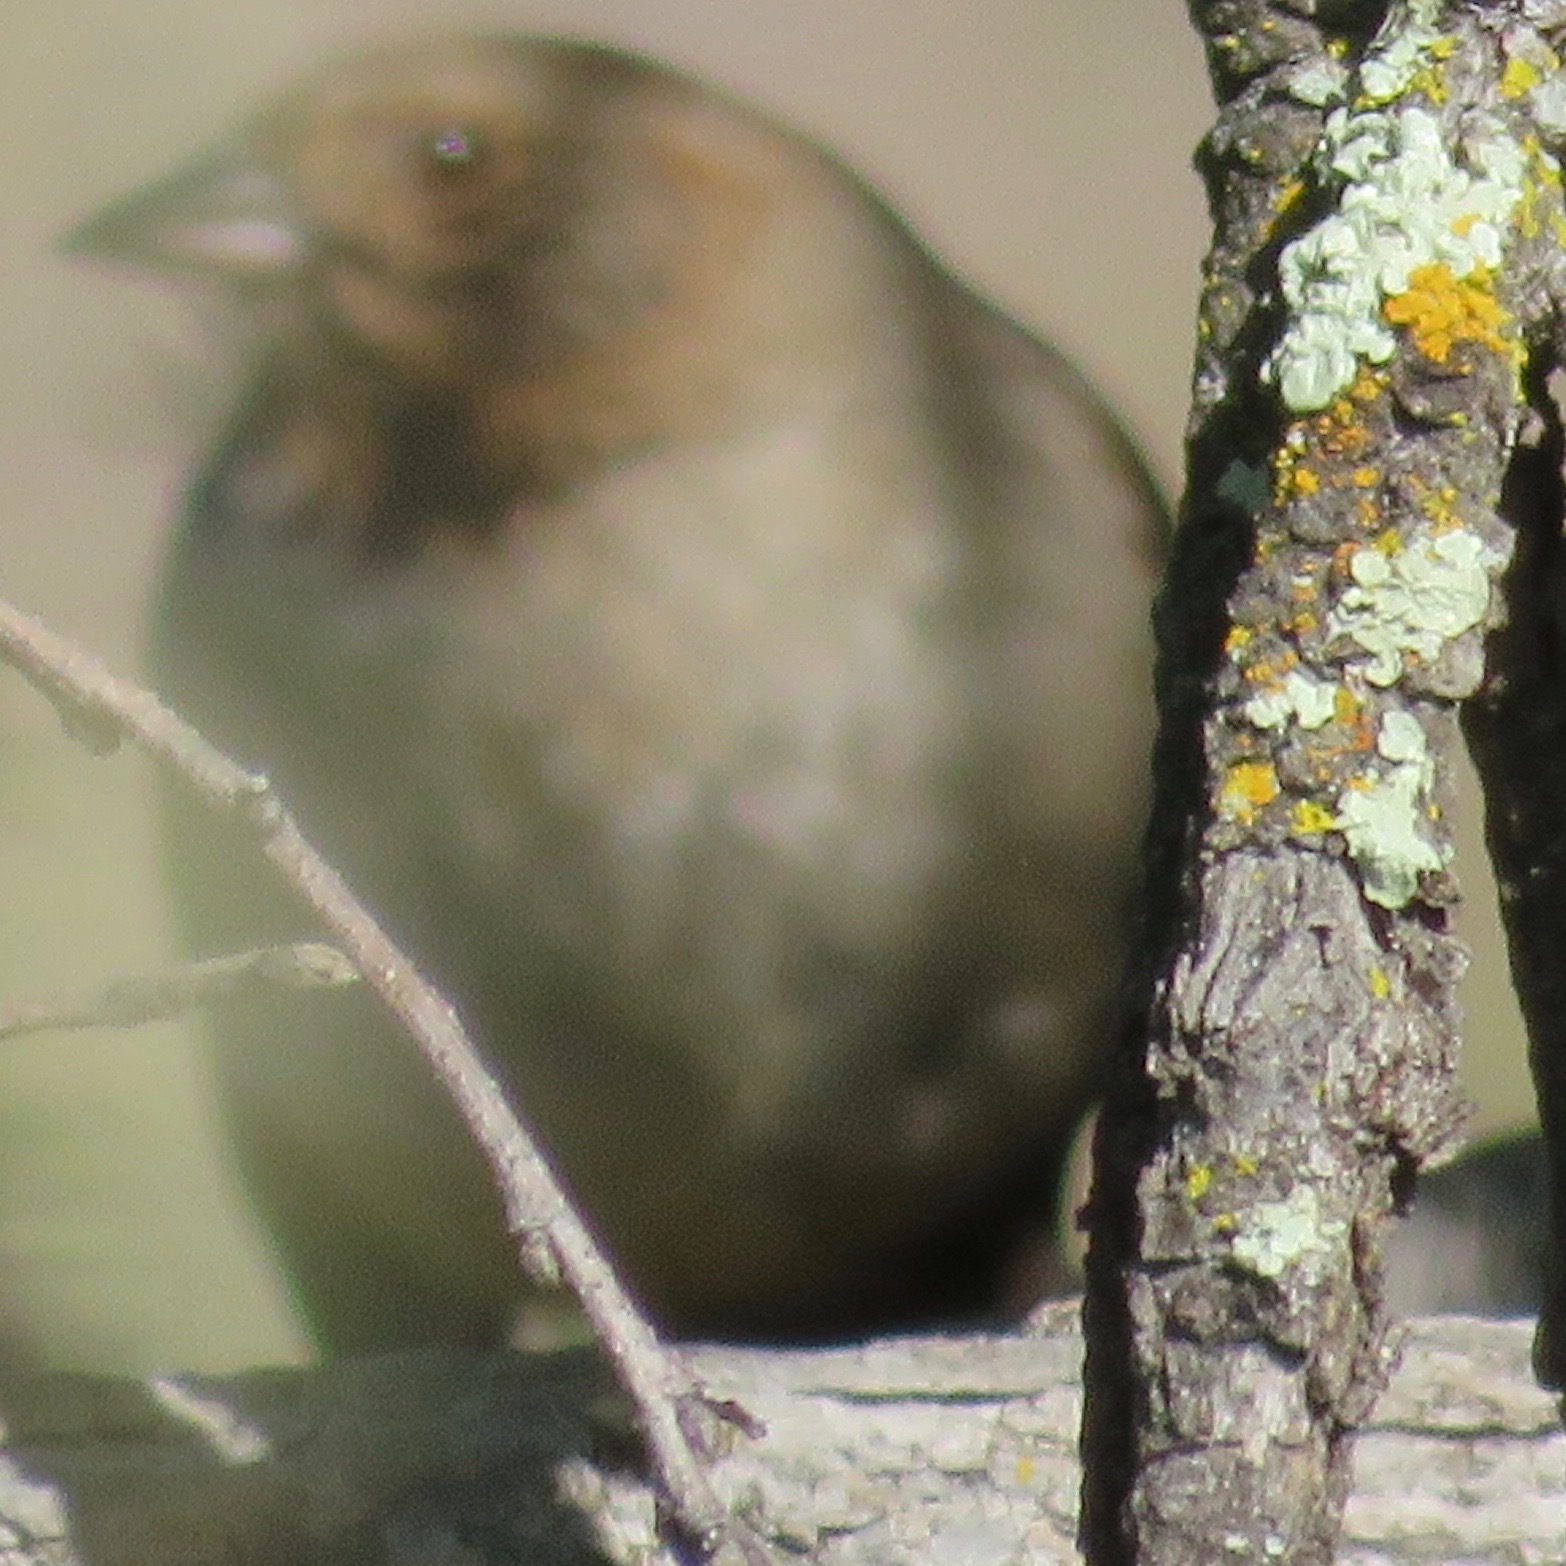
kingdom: Animalia
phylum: Chordata
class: Aves
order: Passeriformes
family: Passerellidae
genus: Melozone
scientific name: Melozone crissalis
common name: California towhee
